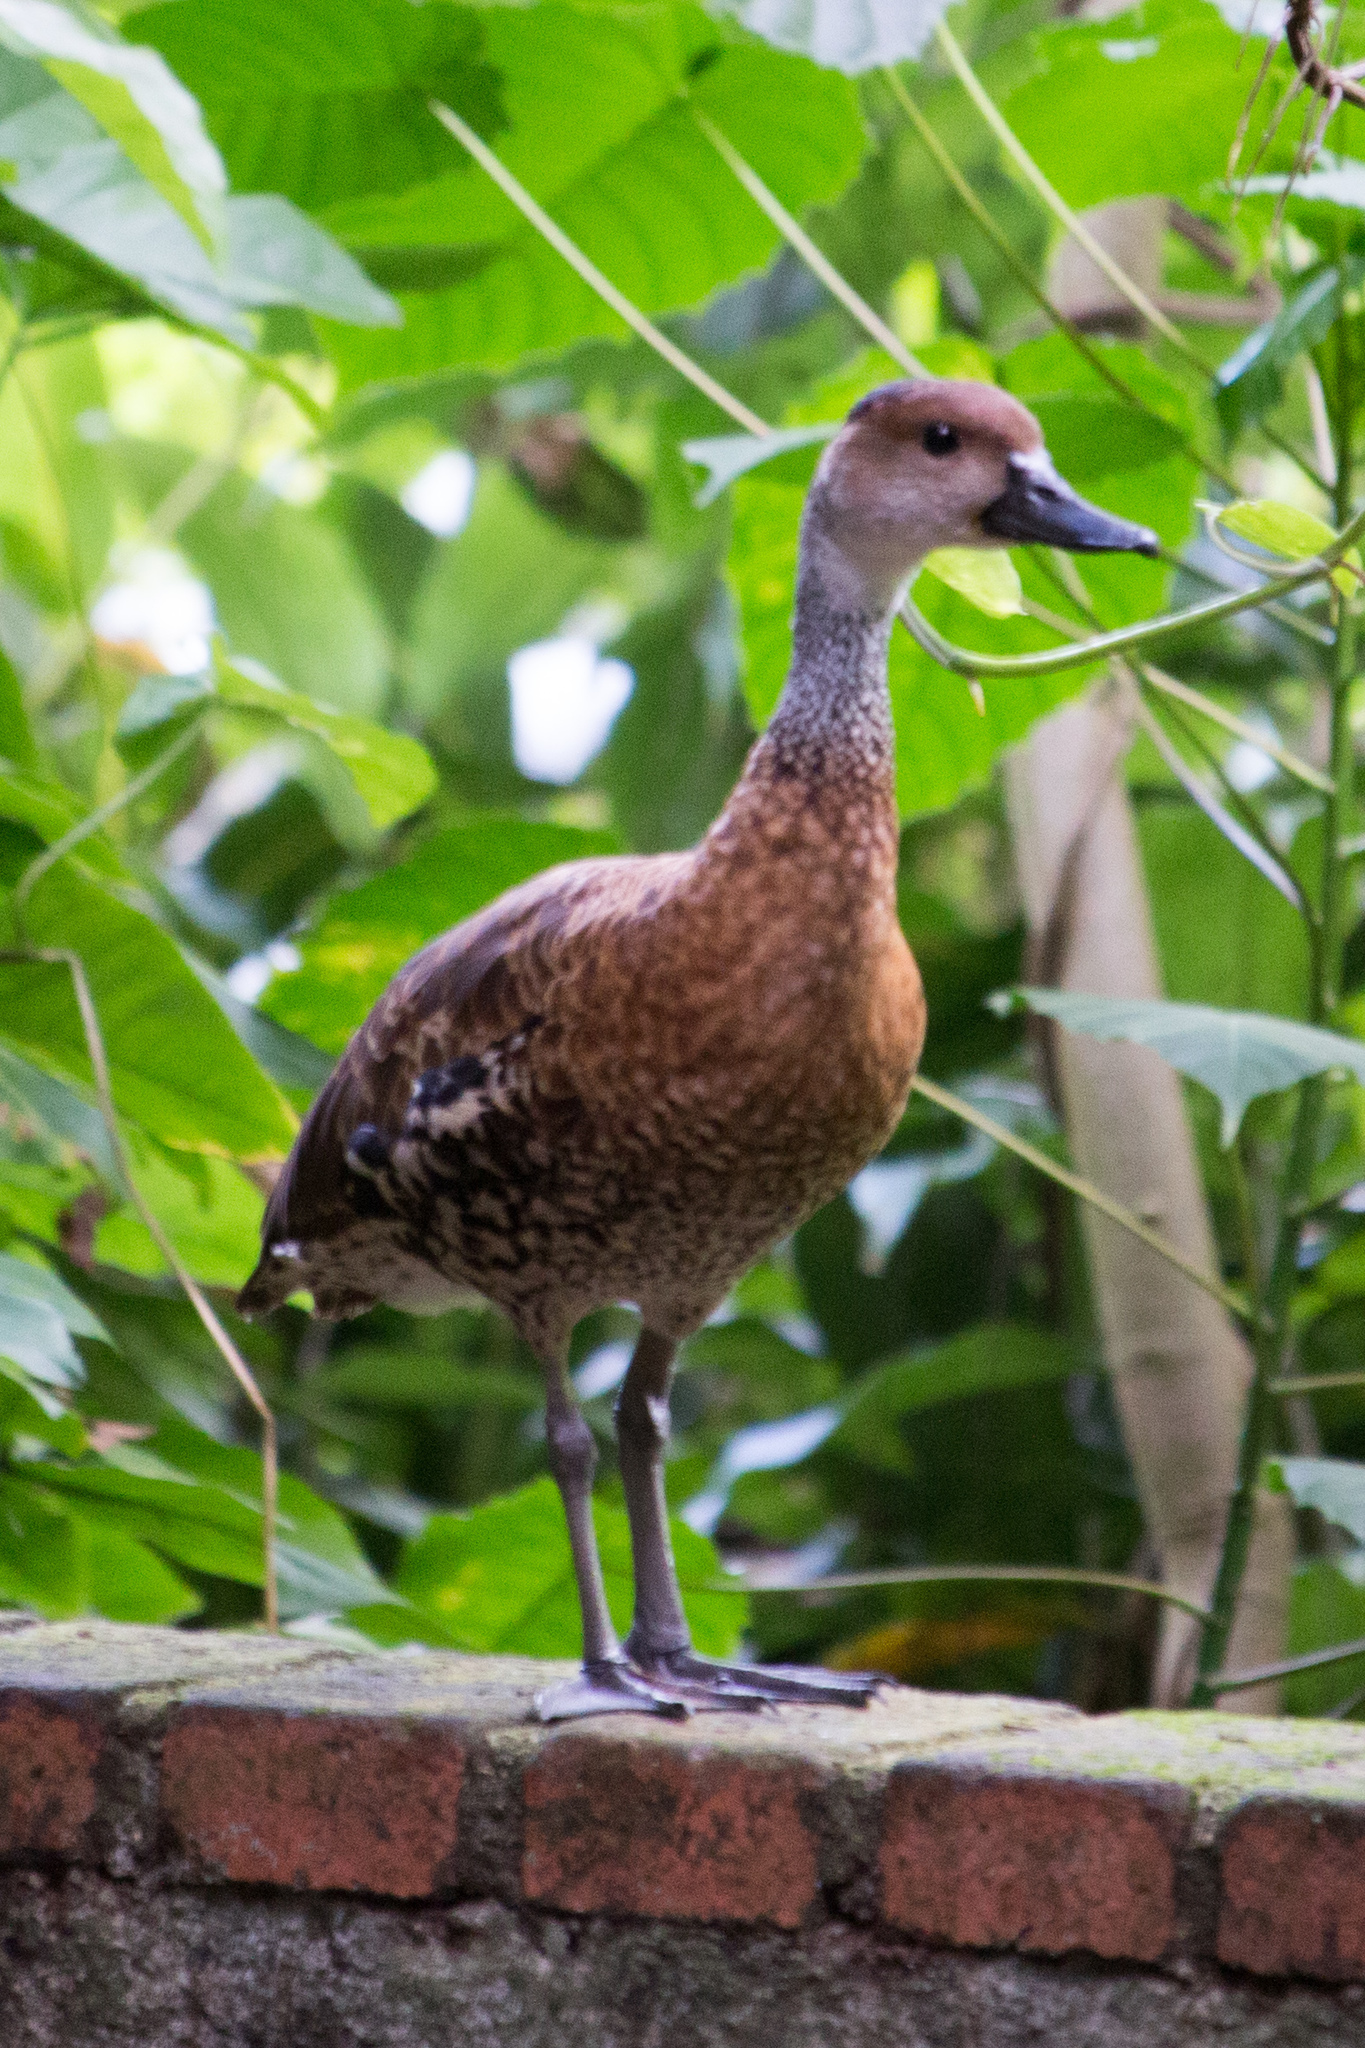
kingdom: Animalia
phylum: Chordata
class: Aves
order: Anseriformes
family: Anatidae
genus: Dendrocygna
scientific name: Dendrocygna arborea
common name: West indian whistling duck
